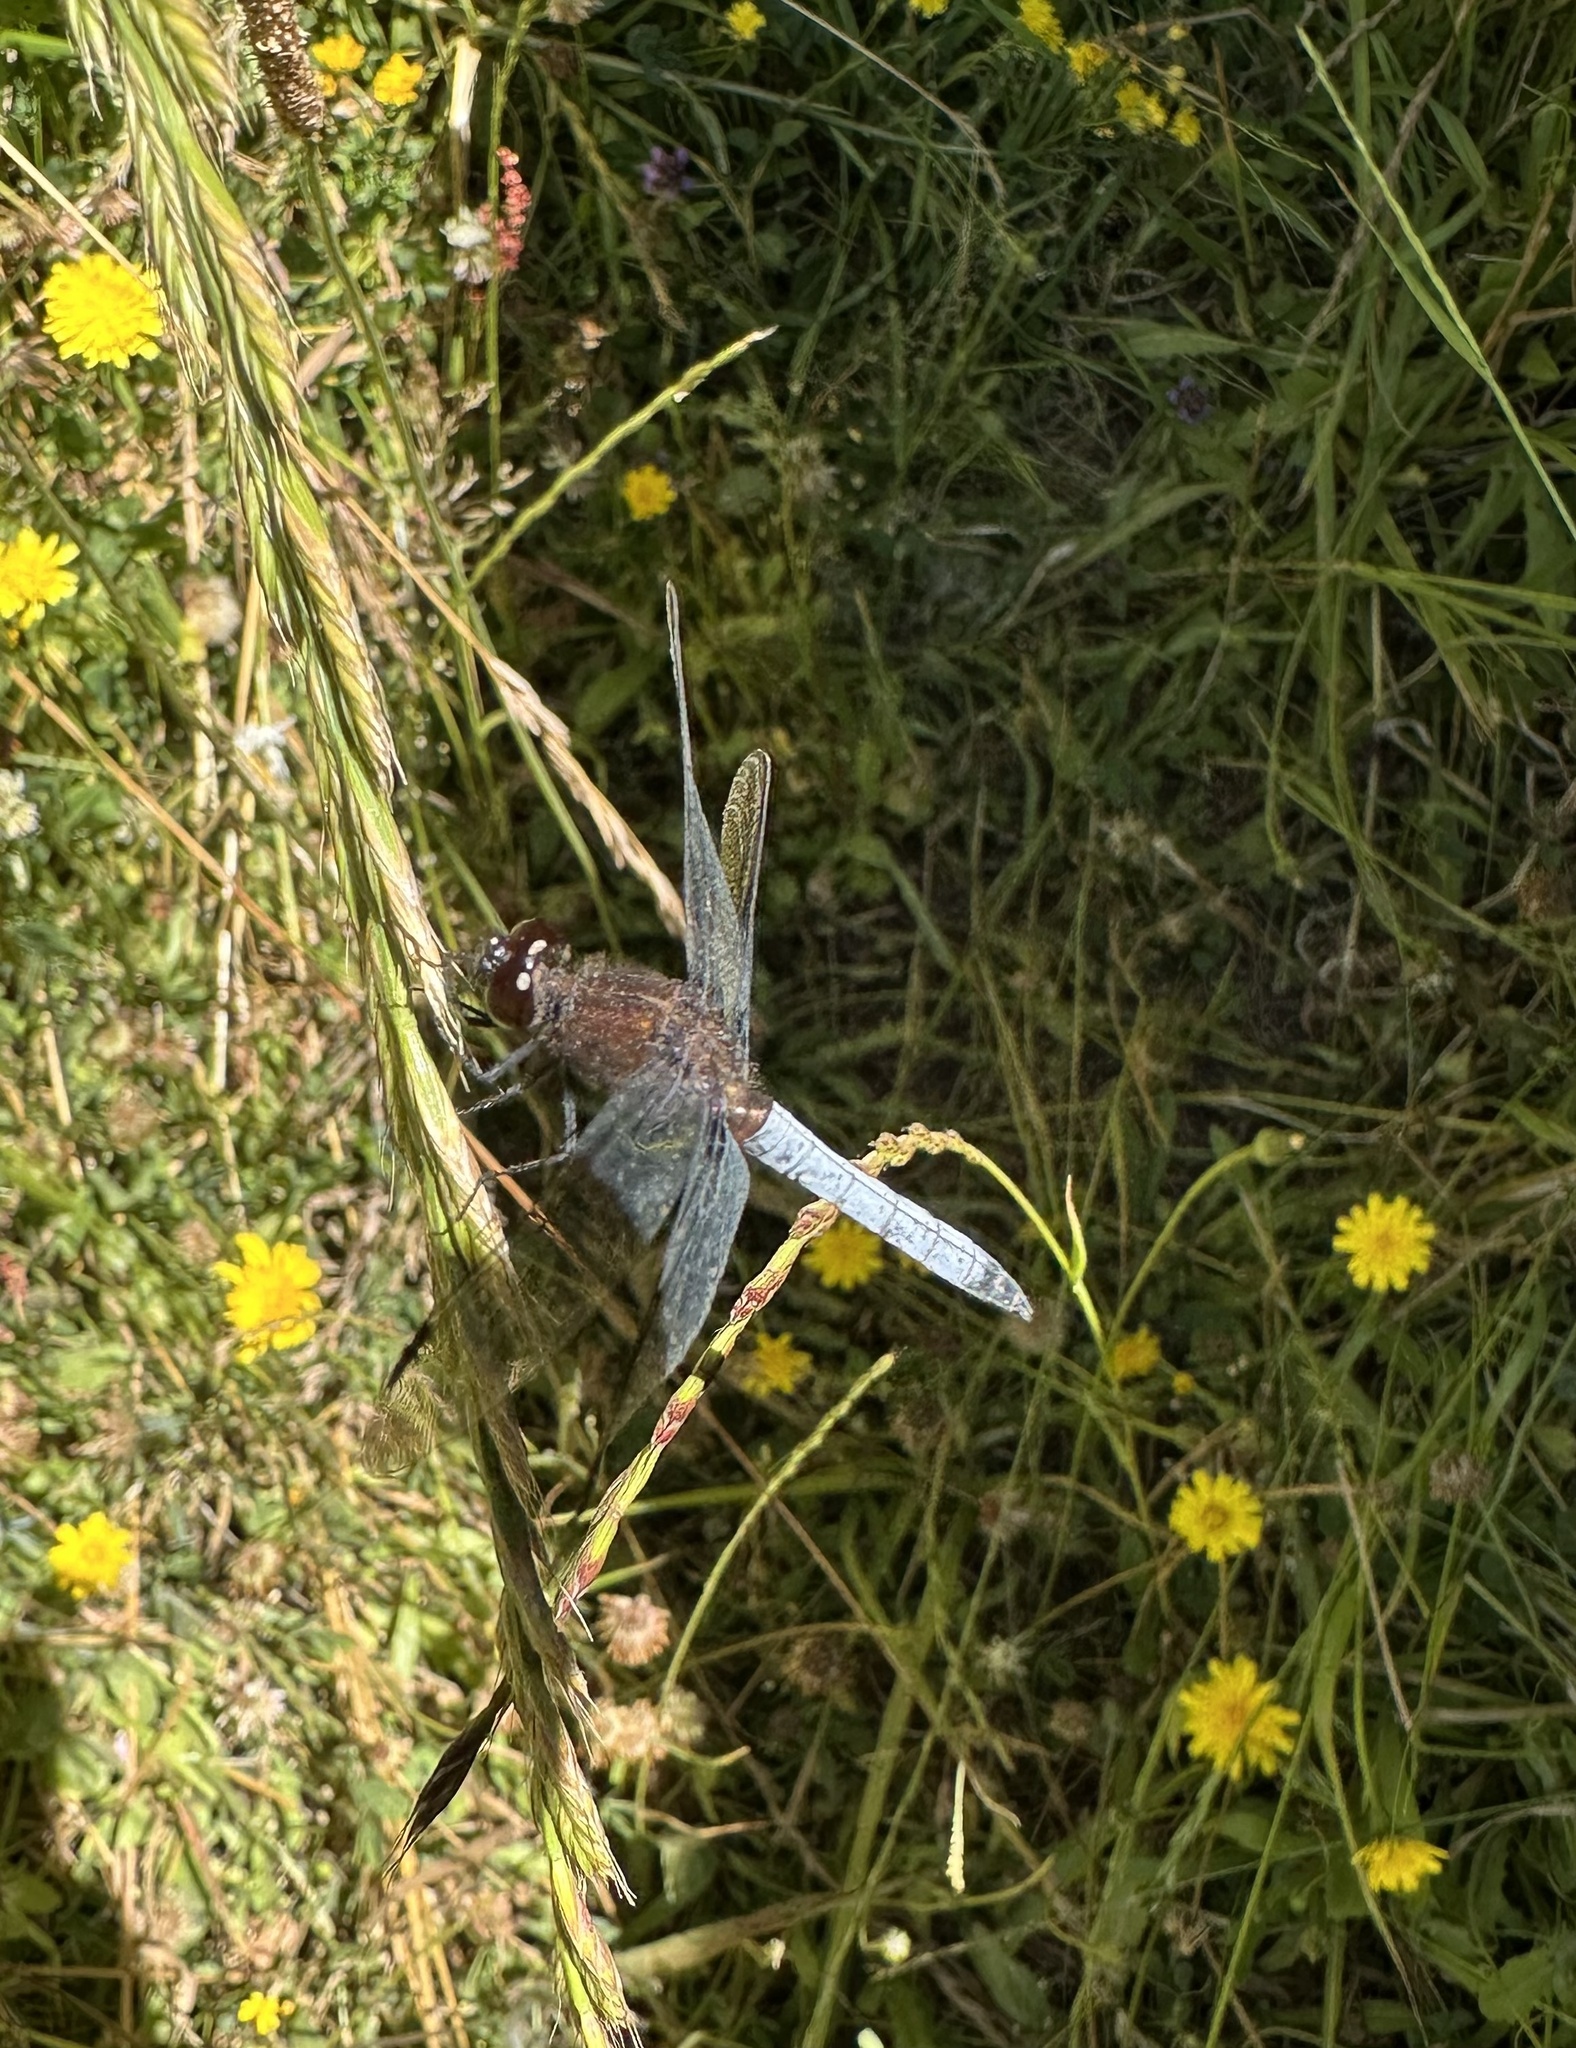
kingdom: Animalia
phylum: Arthropoda
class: Insecta
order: Odonata
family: Libellulidae
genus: Erythrodiplax
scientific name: Erythrodiplax connata
